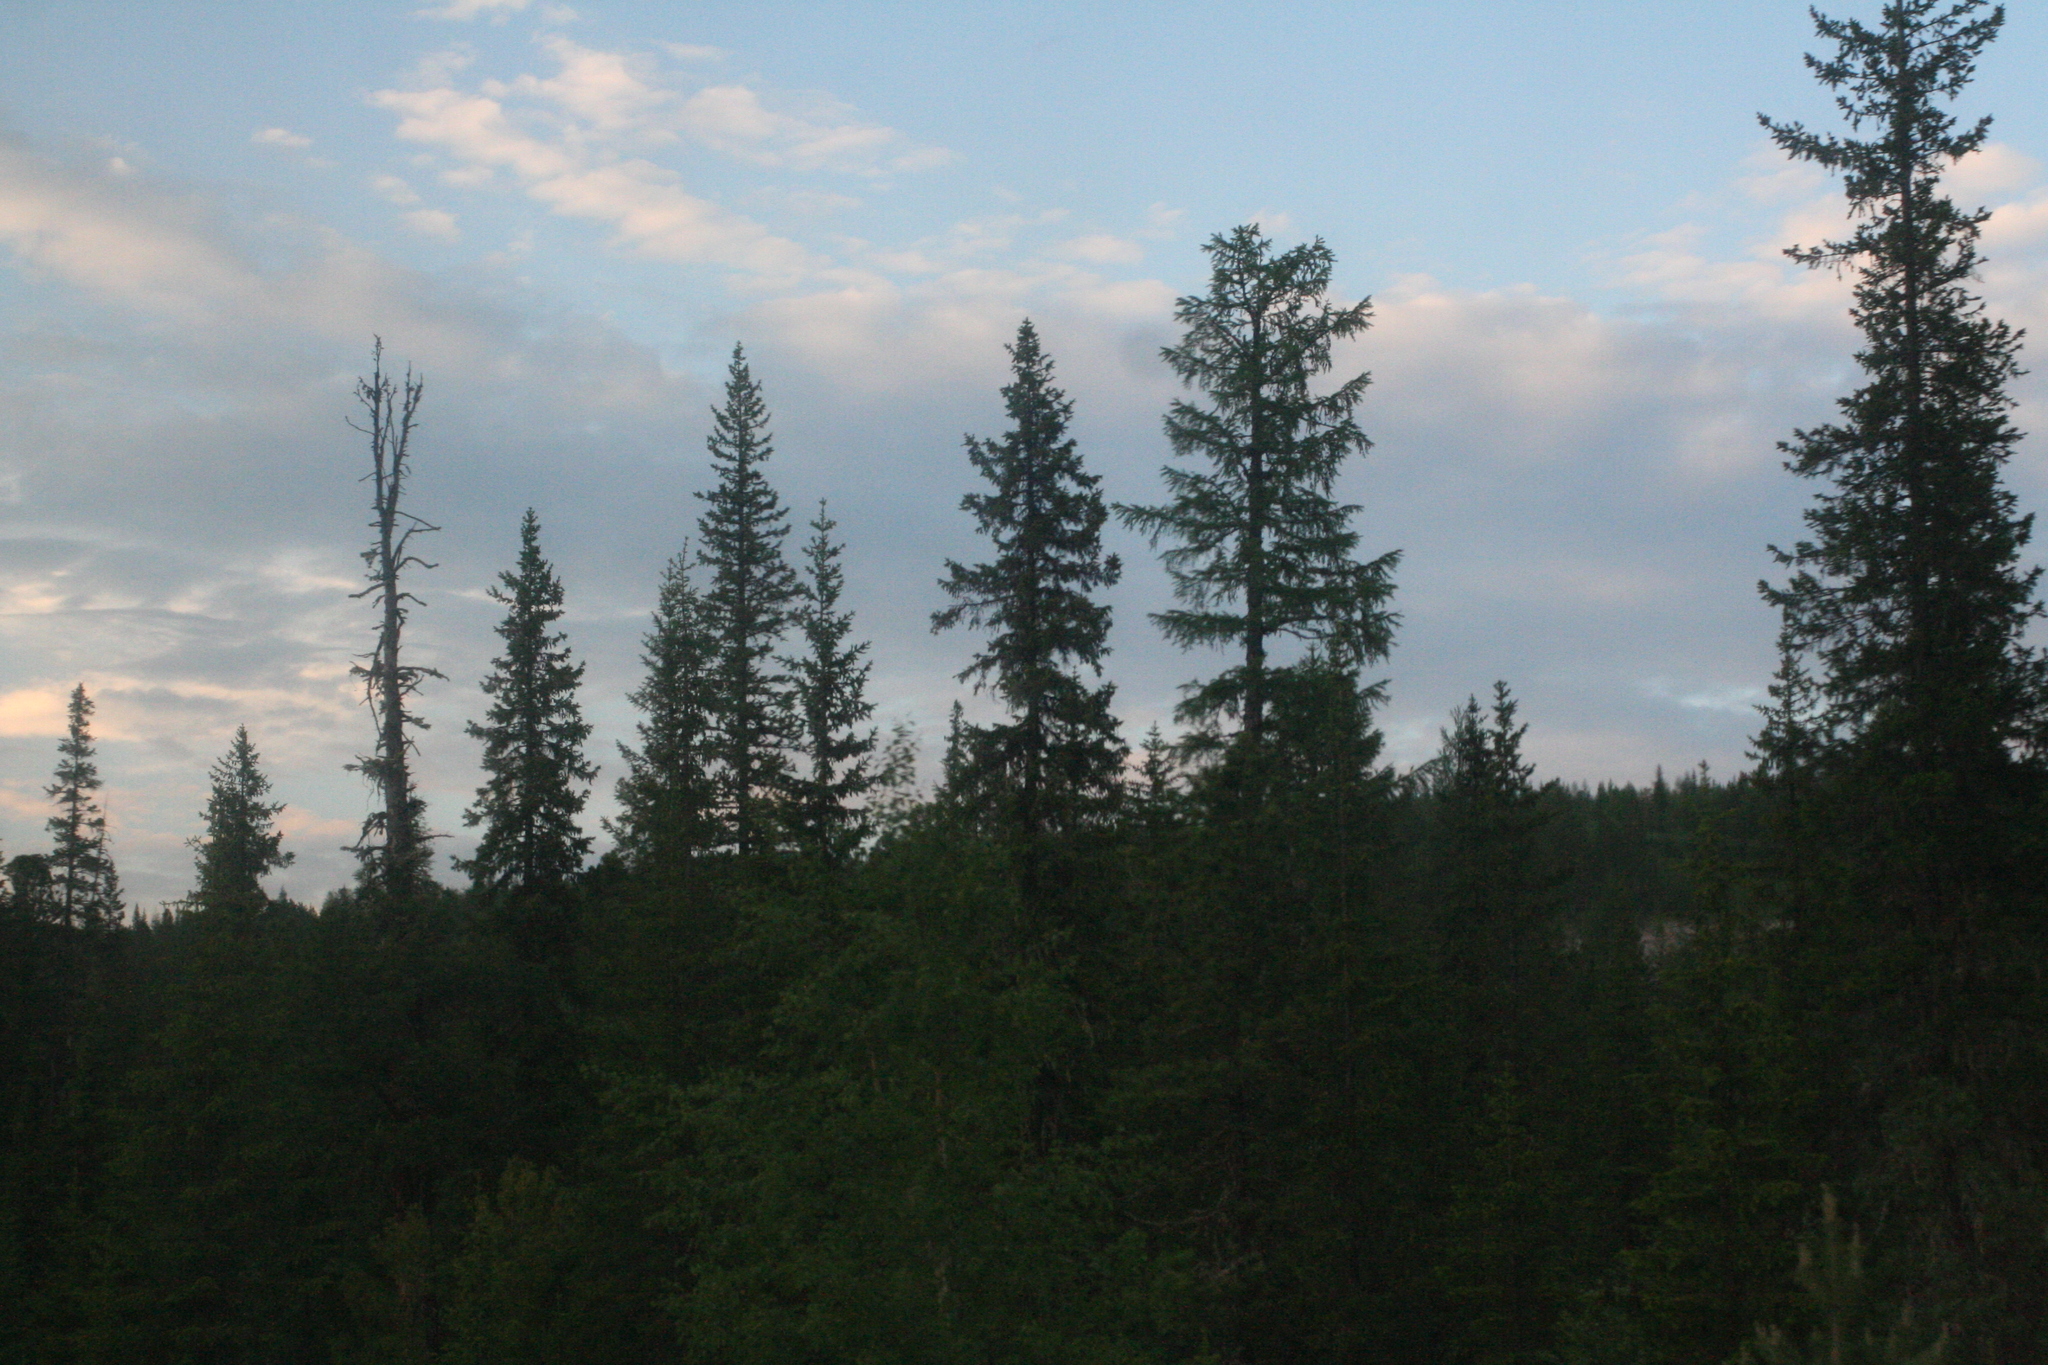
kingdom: Plantae
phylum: Tracheophyta
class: Pinopsida
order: Pinales
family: Pinaceae
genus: Picea
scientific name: Picea obovata
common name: Siberian spruce
